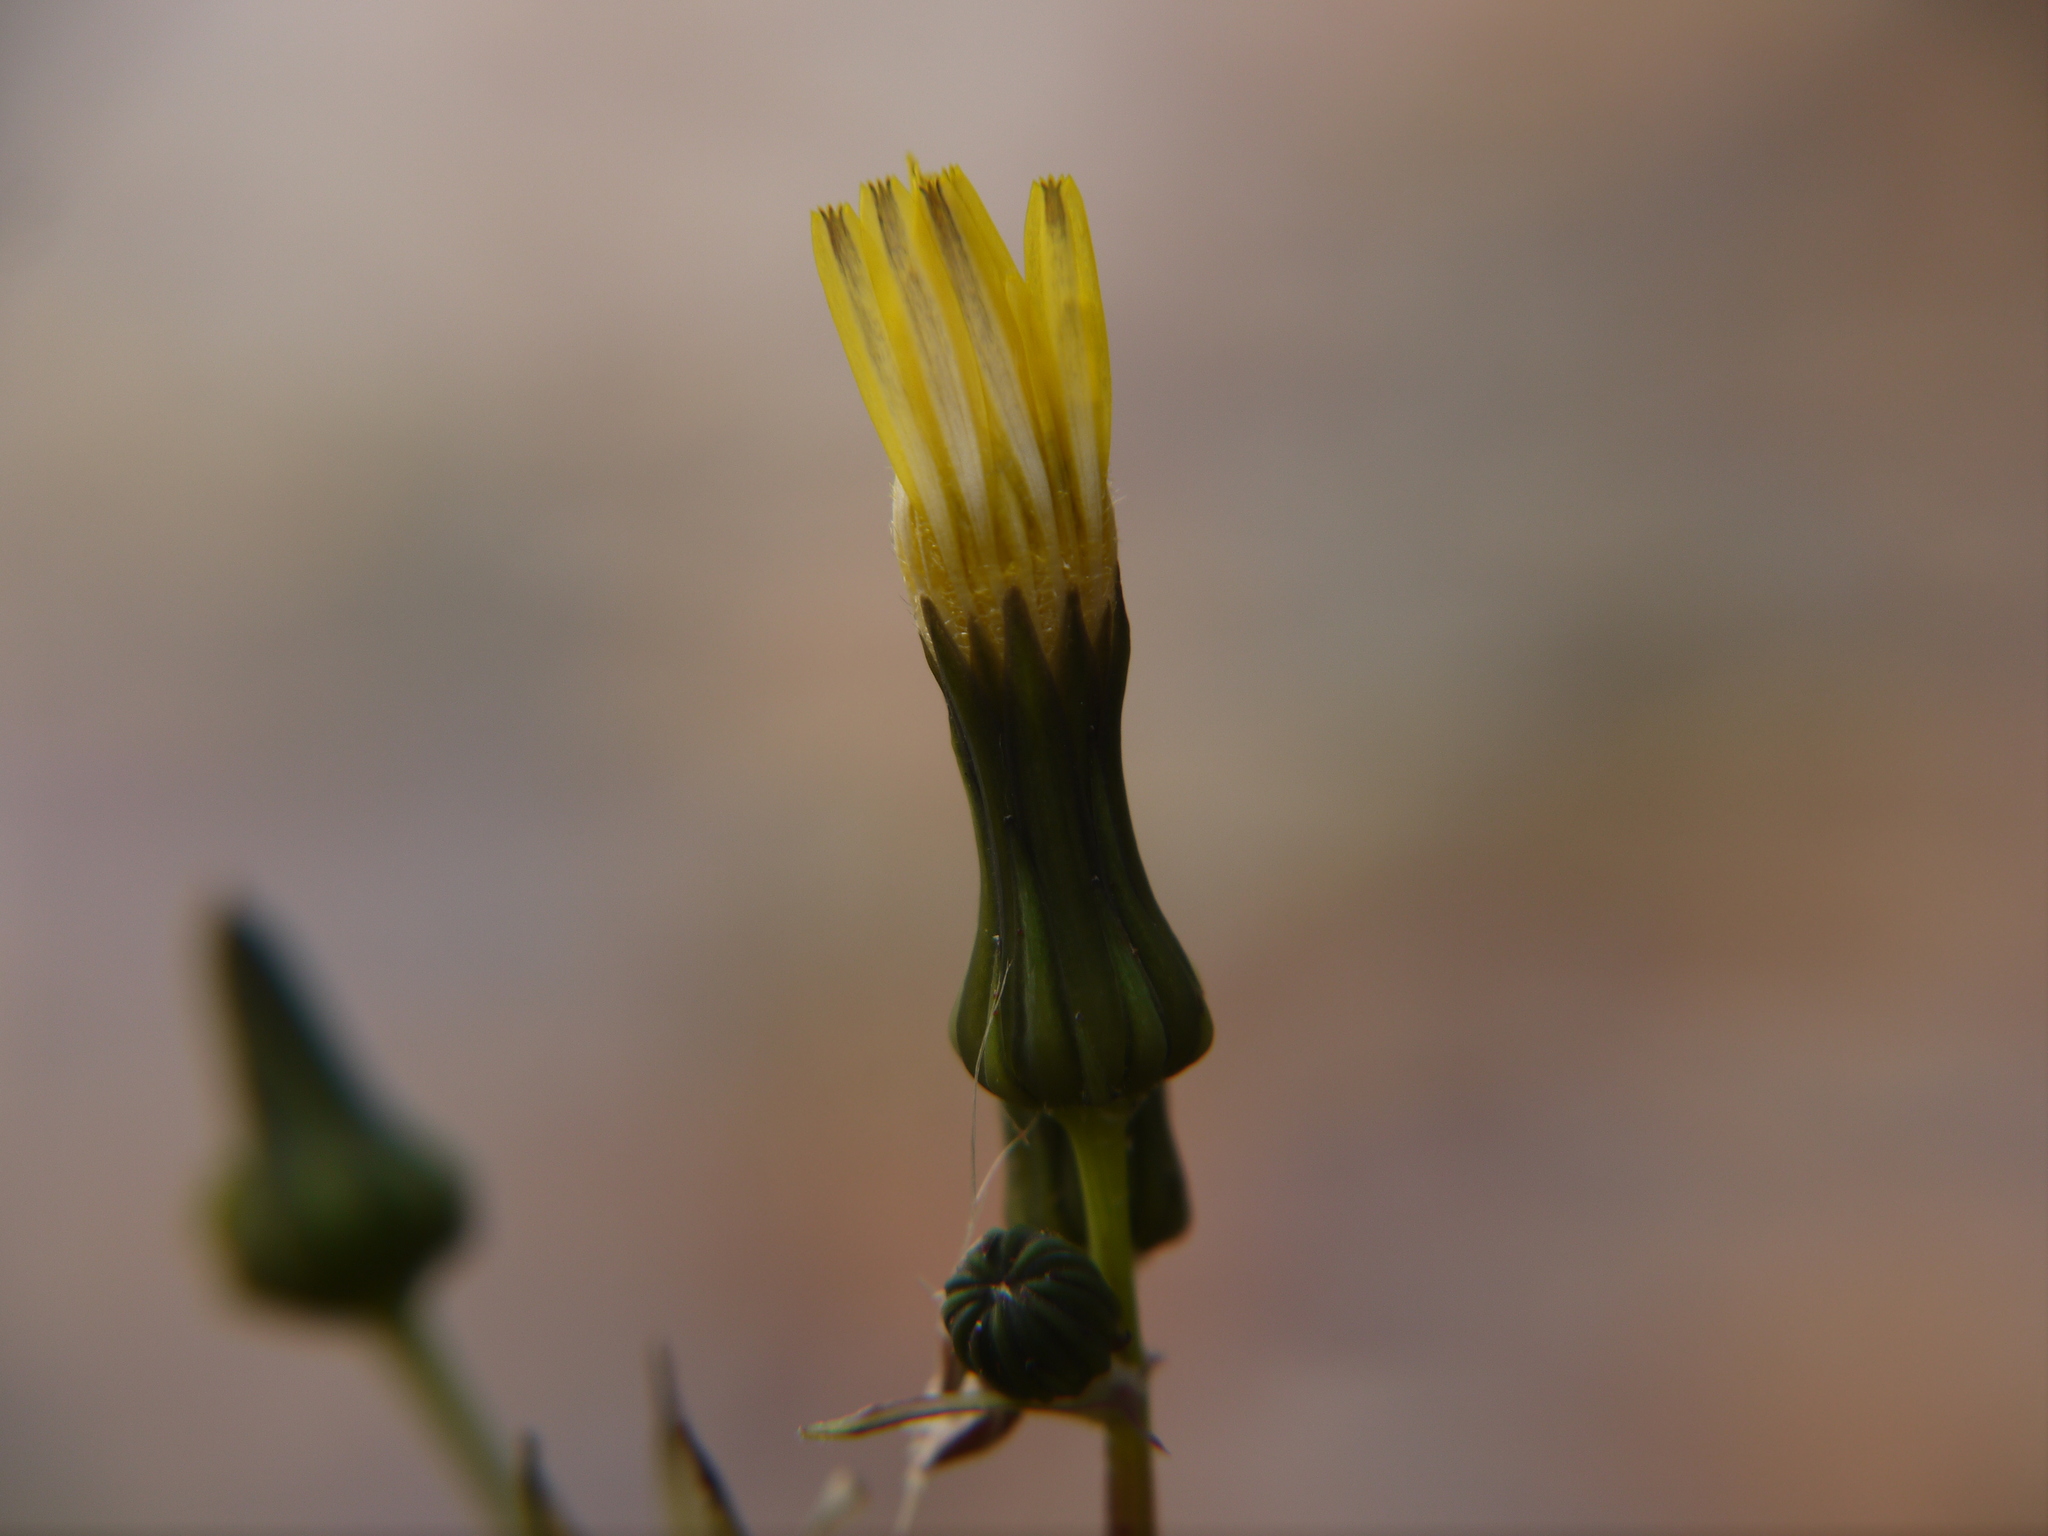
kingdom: Plantae
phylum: Tracheophyta
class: Magnoliopsida
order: Asterales
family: Asteraceae
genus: Sonchus
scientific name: Sonchus oleraceus
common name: Common sowthistle
